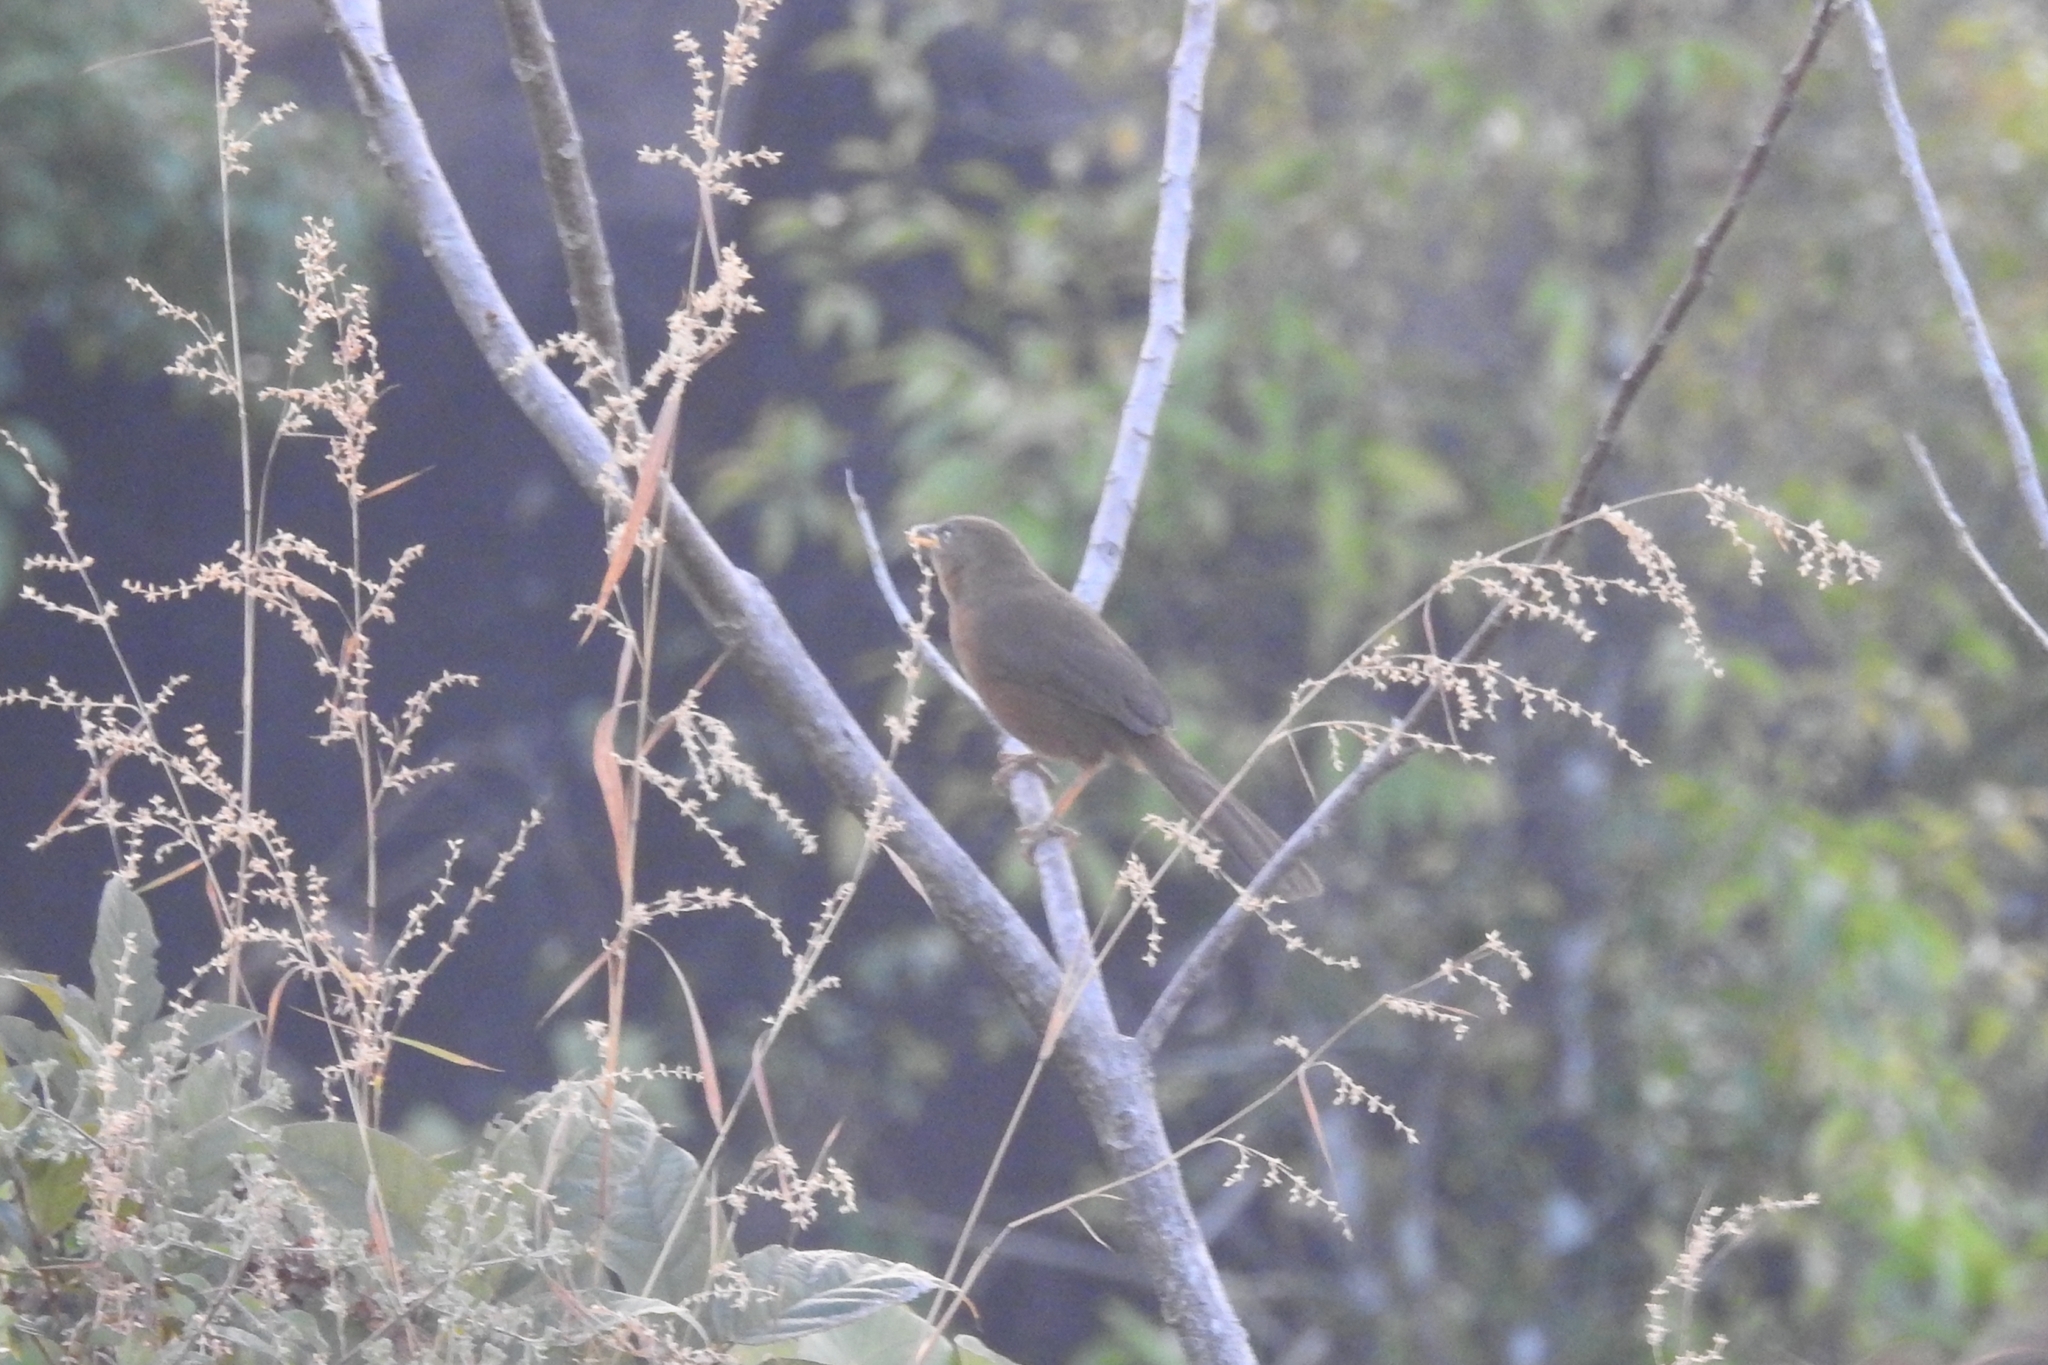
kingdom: Animalia
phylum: Chordata
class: Aves
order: Passeriformes
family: Leiothrichidae
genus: Turdoides
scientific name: Turdoides subrufa
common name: Rufous babbler
